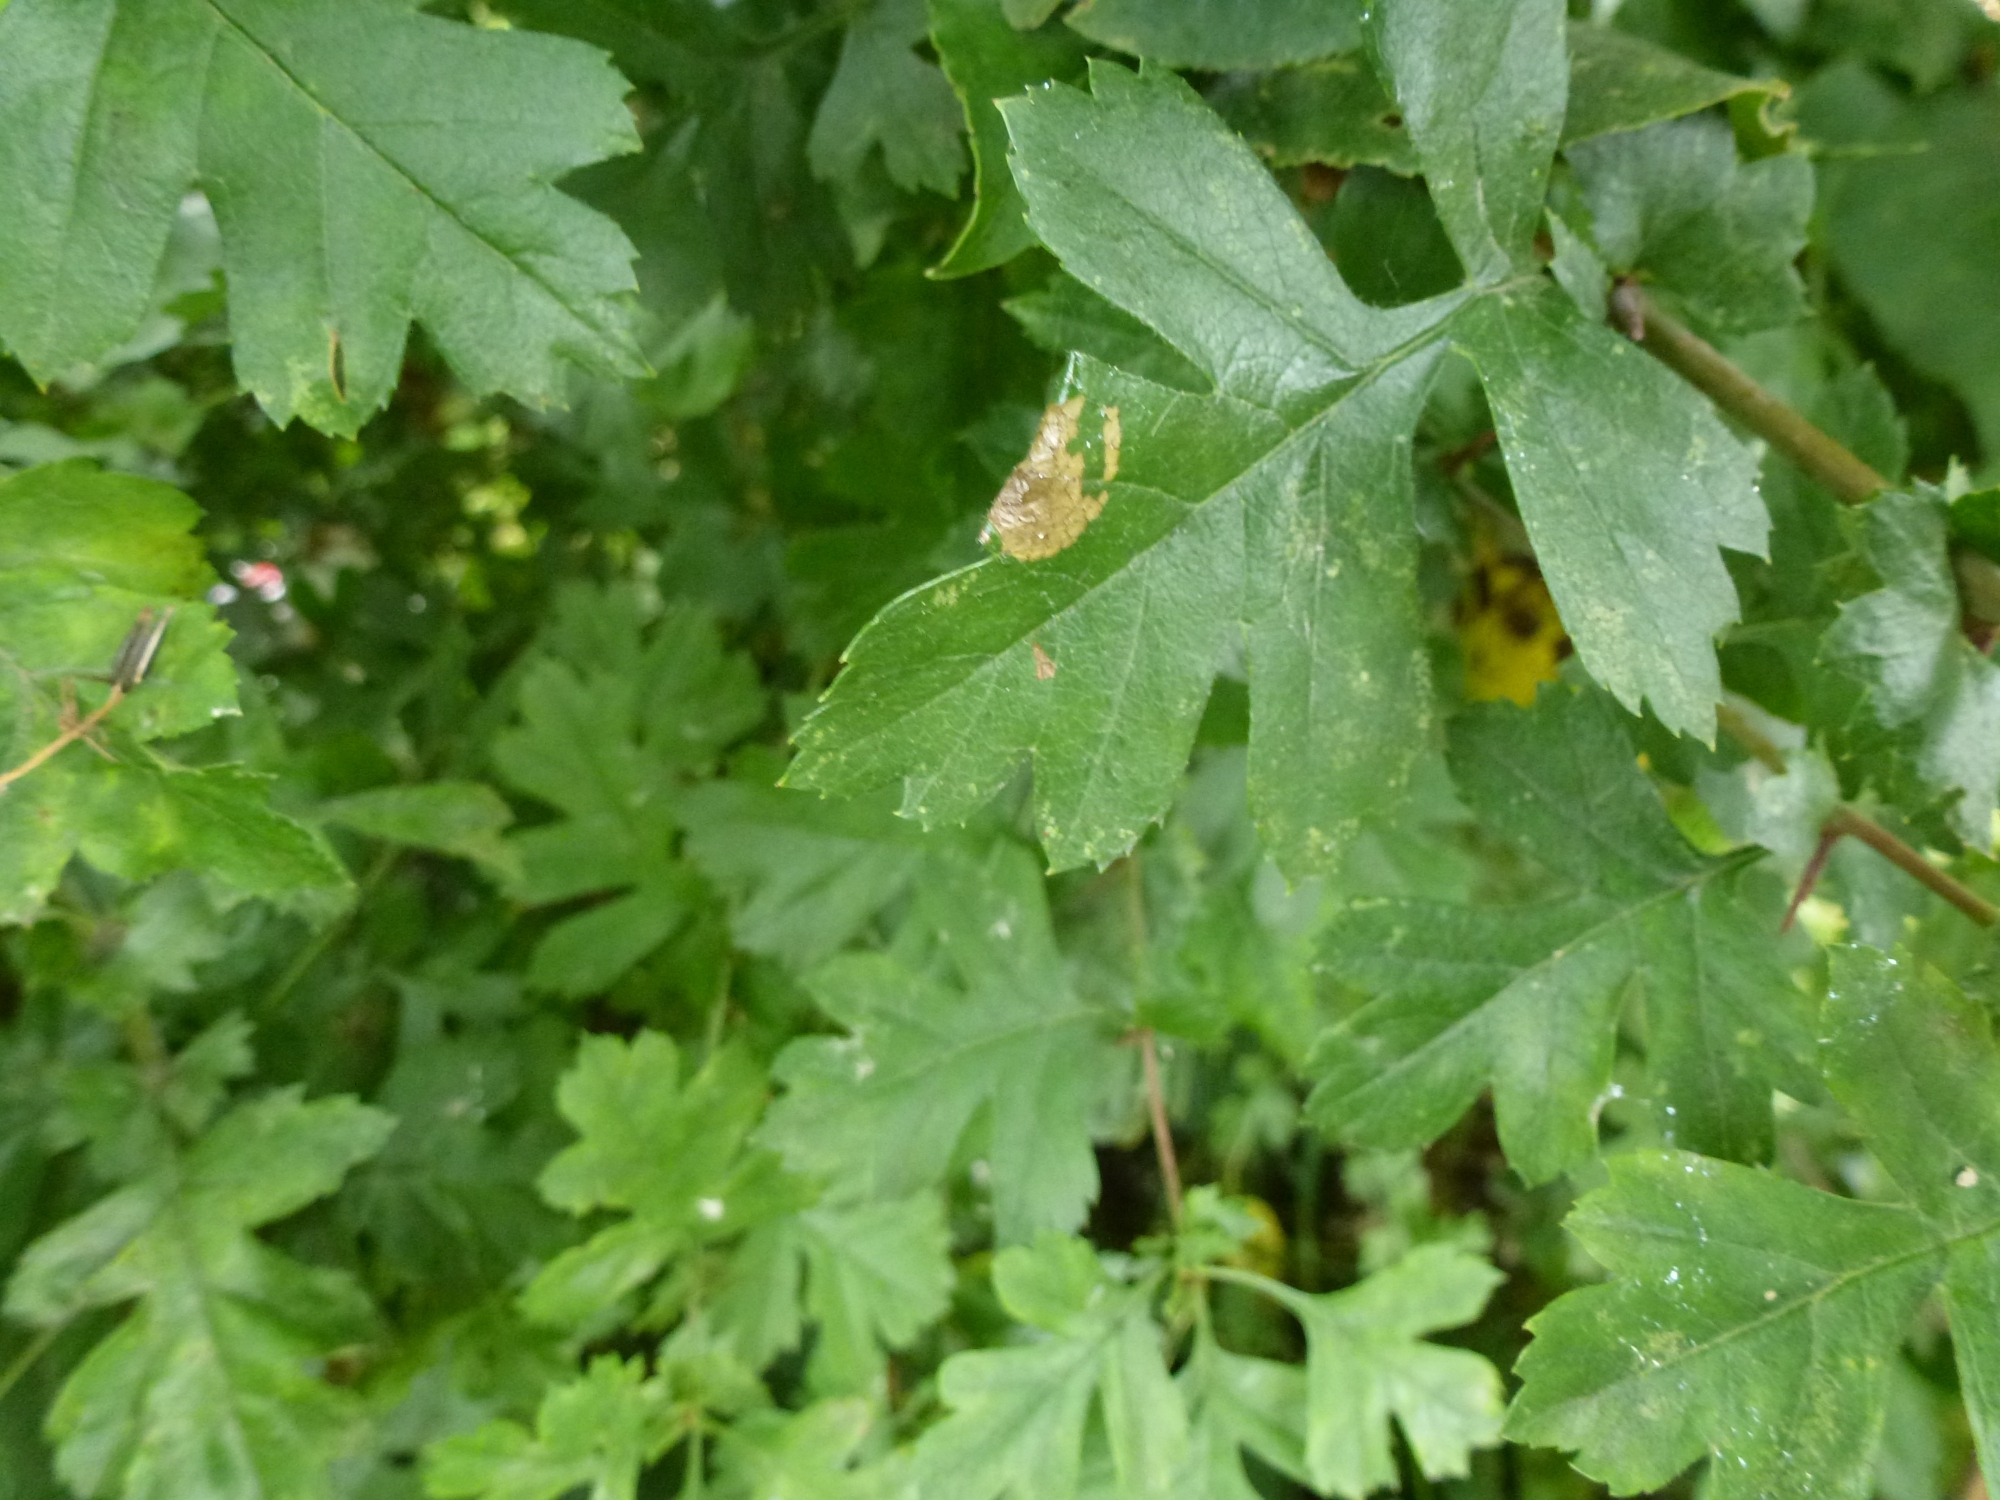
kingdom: Animalia
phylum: Arthropoda
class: Insecta
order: Lepidoptera
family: Gracillariidae
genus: Parornix
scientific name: Parornix anglicella
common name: Hawthorn slender
